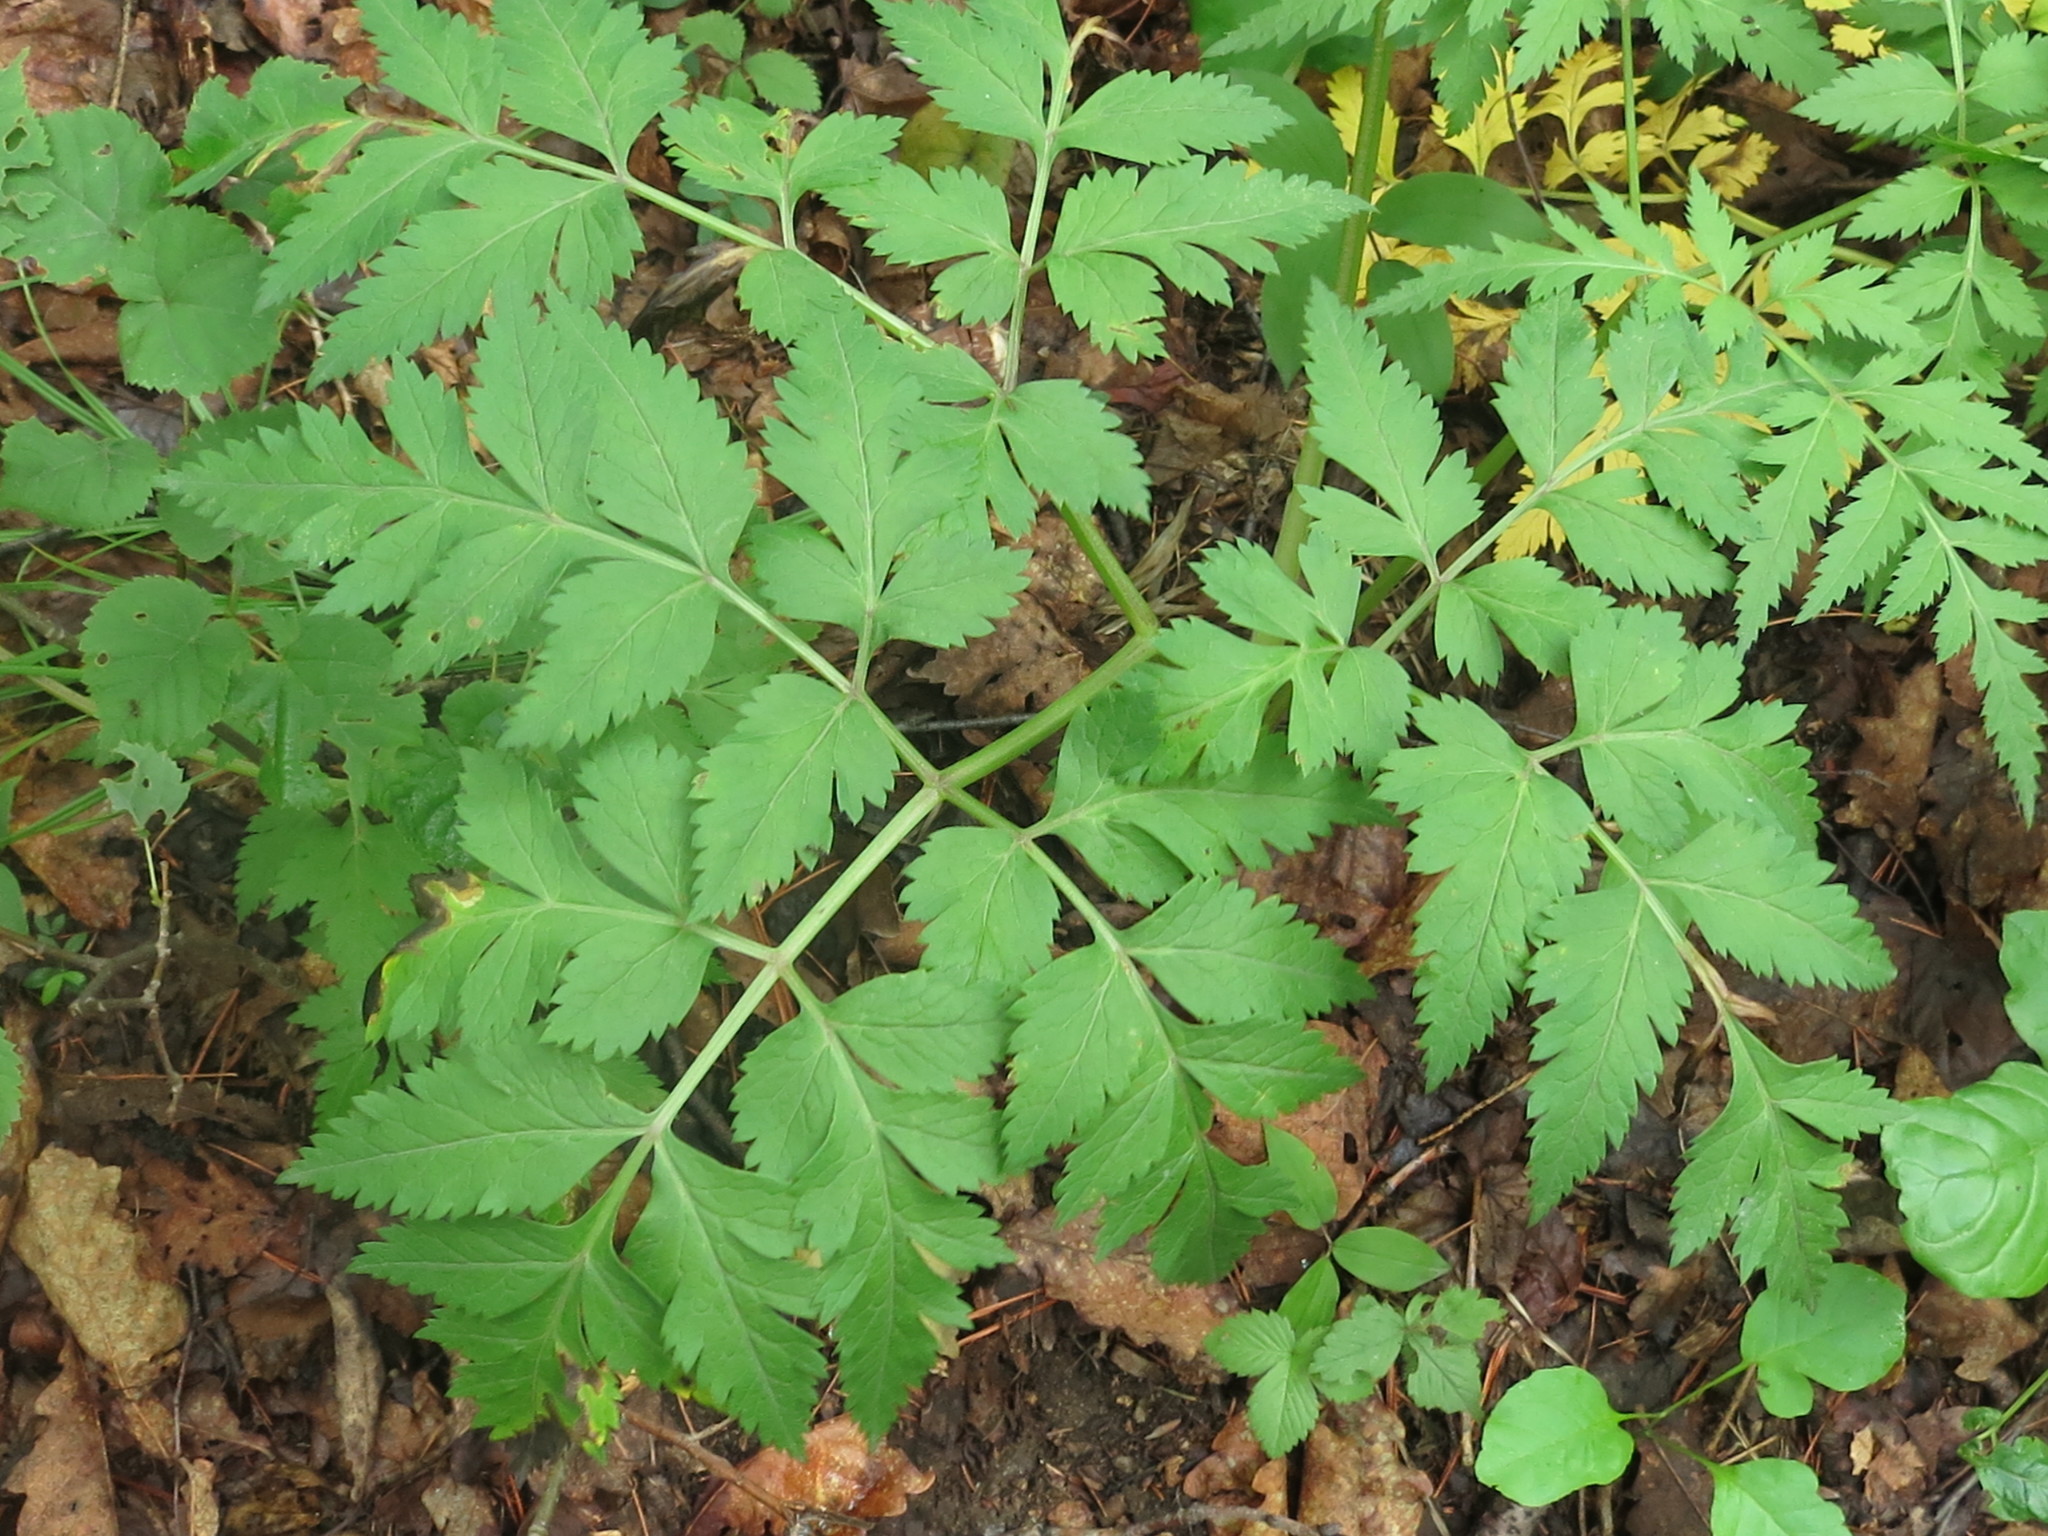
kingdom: Plantae
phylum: Tracheophyta
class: Magnoliopsida
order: Apiales
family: Apiaceae
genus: Pleurospermum
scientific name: Pleurospermum uralense
